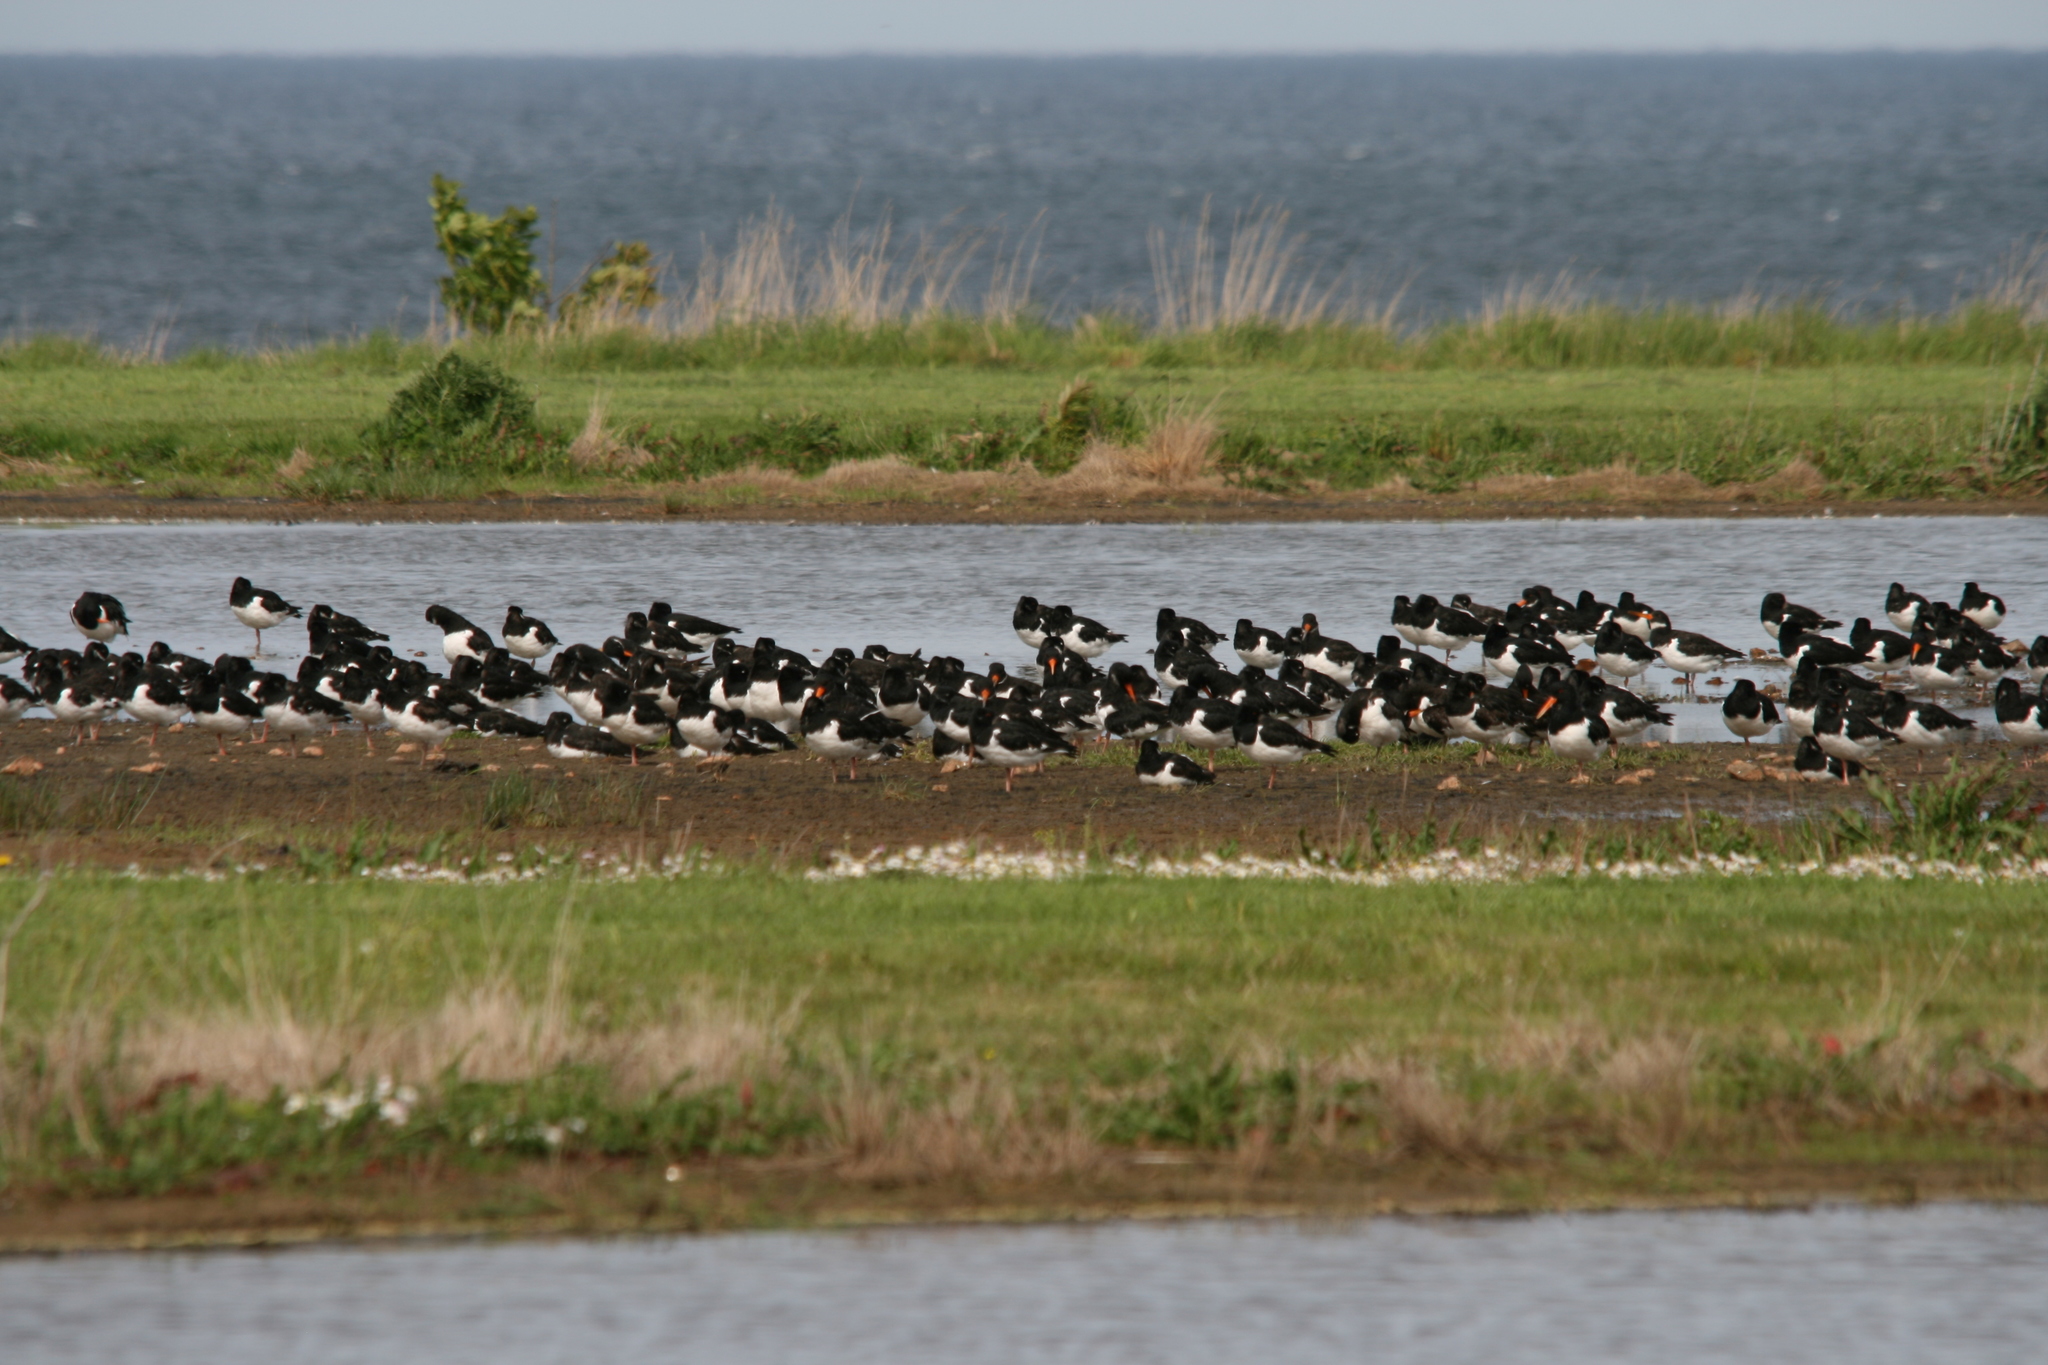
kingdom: Animalia
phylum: Chordata
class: Aves
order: Charadriiformes
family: Haematopodidae
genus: Haematopus
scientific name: Haematopus ostralegus
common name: Eurasian oystercatcher
